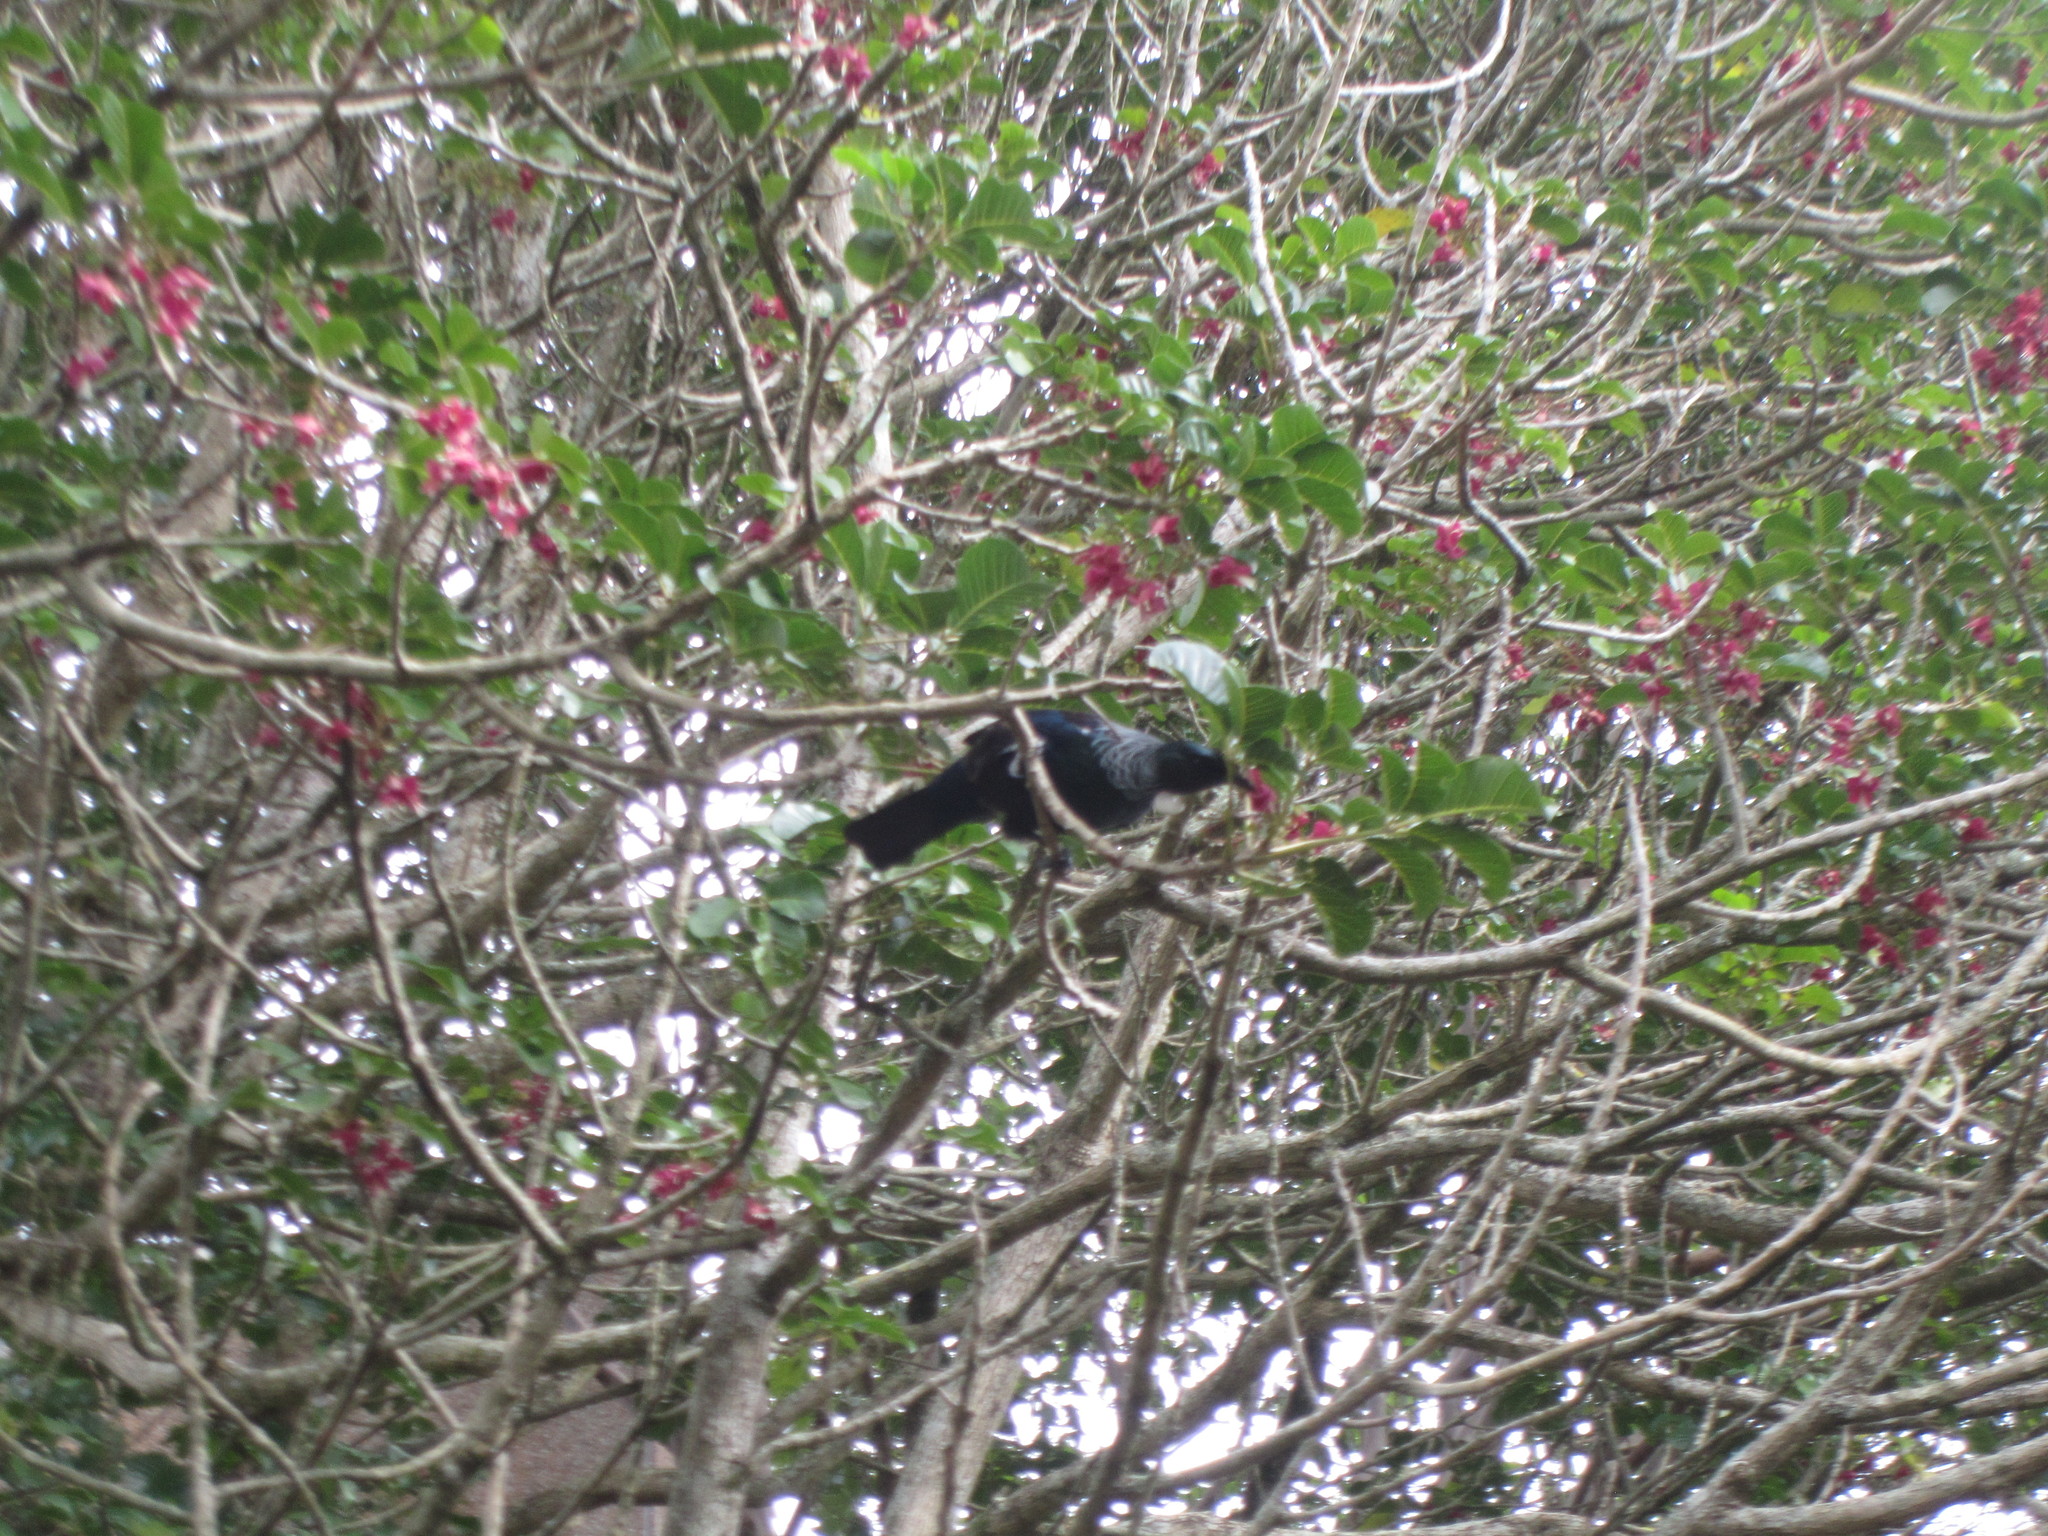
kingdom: Animalia
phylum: Chordata
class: Aves
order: Passeriformes
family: Meliphagidae
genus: Prosthemadera
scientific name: Prosthemadera novaeseelandiae
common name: Tui
